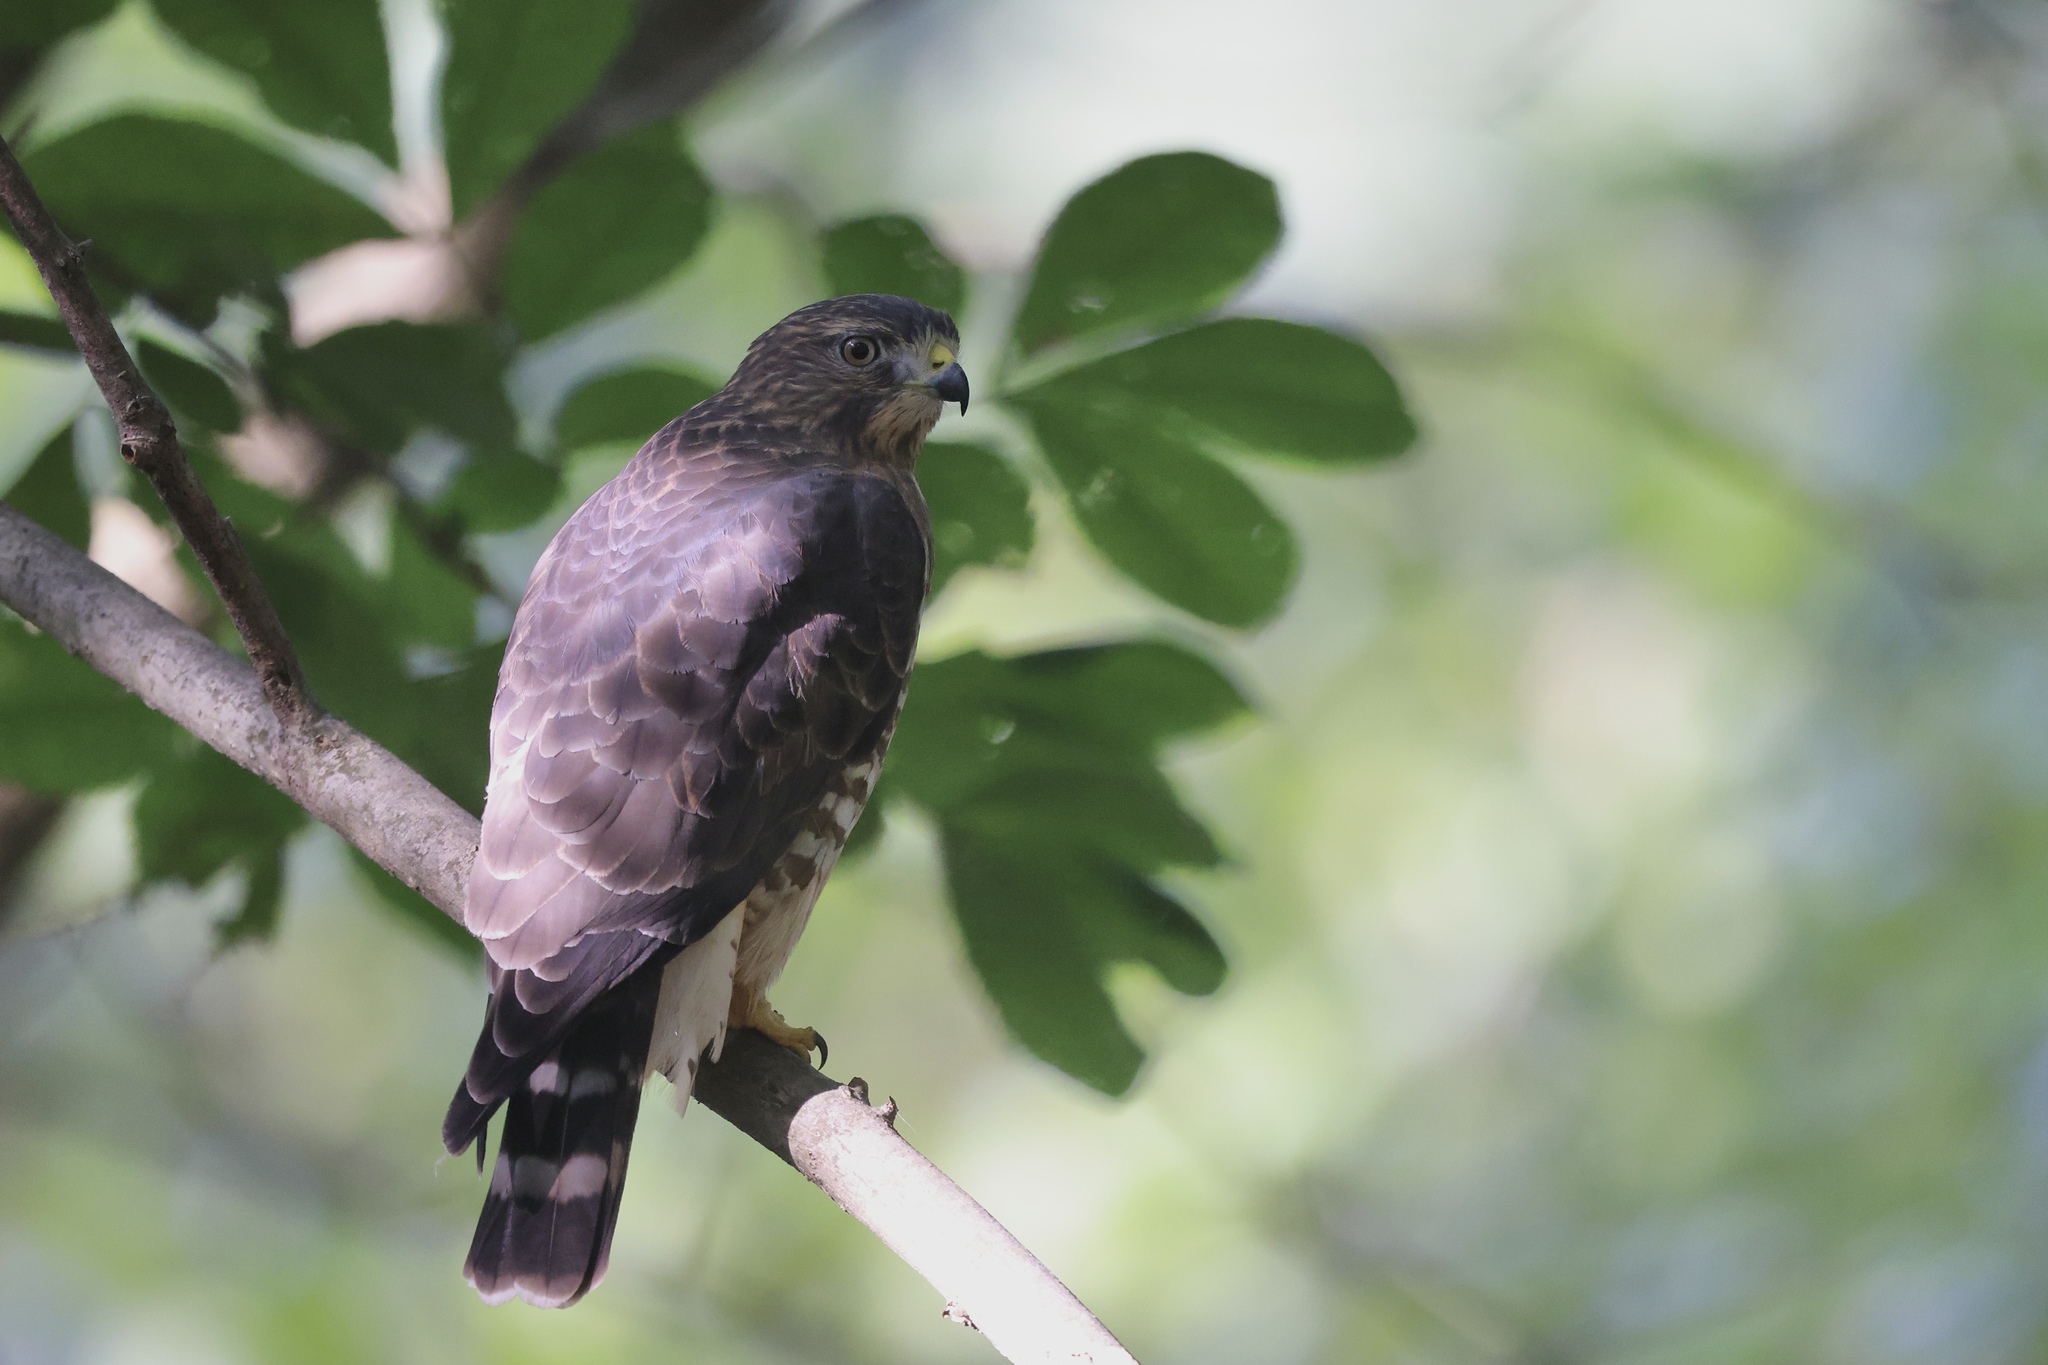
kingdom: Animalia
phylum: Chordata
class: Aves
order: Accipitriformes
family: Accipitridae
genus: Buteo
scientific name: Buteo platypterus
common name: Broad-winged hawk
